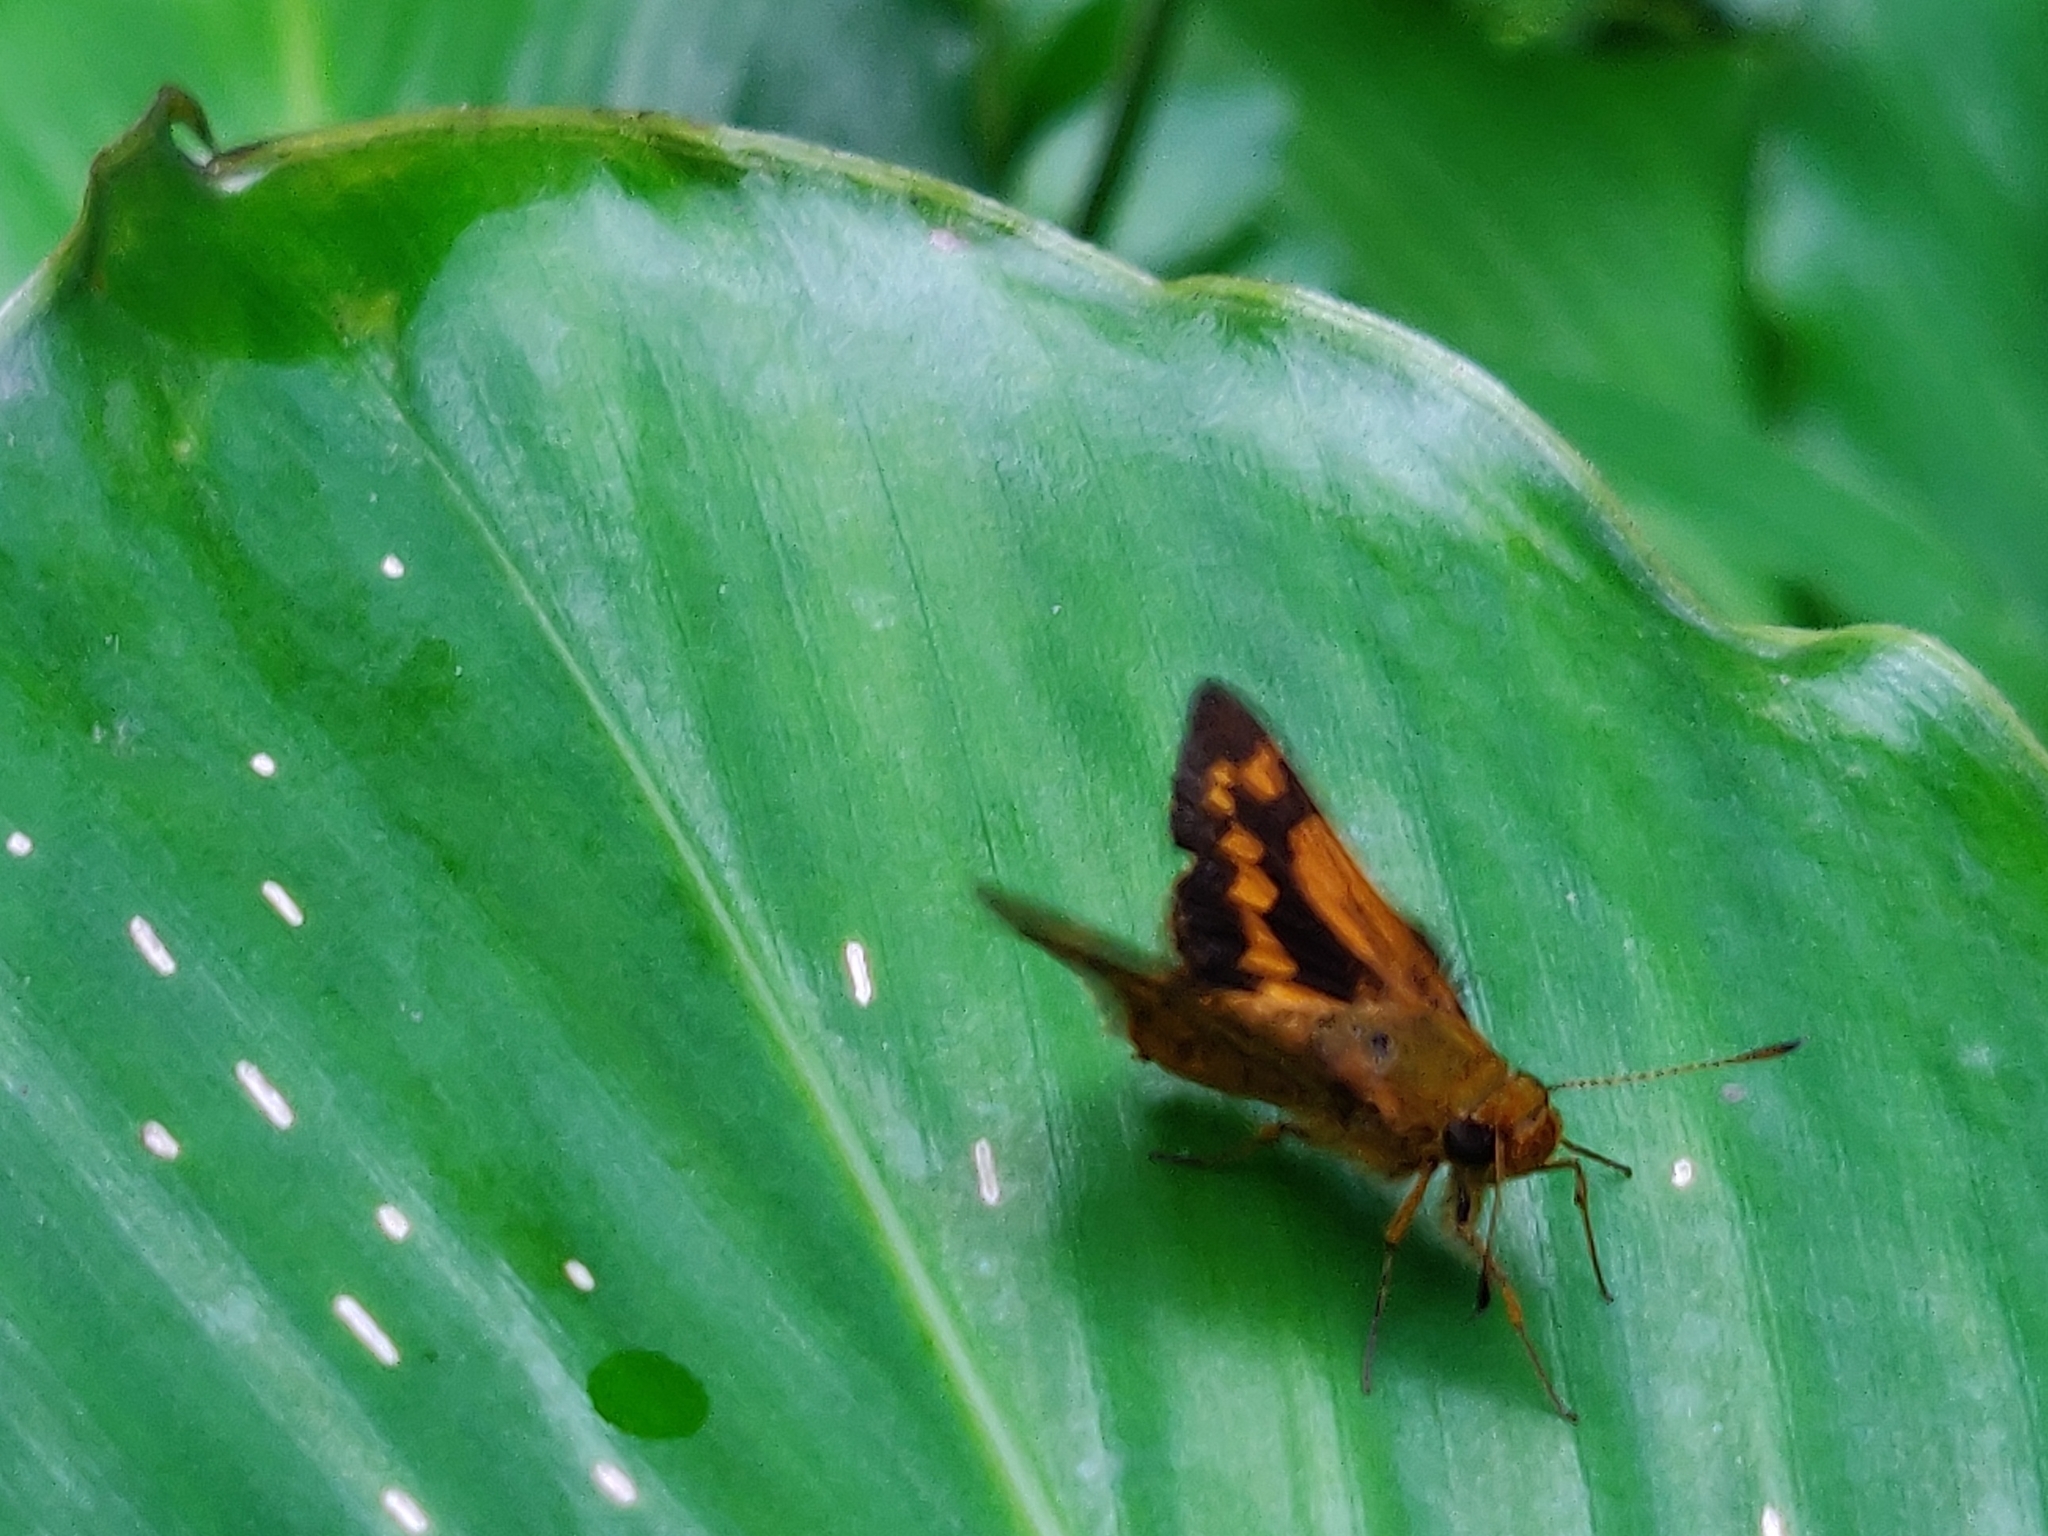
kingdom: Animalia
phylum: Arthropoda
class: Insecta
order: Lepidoptera
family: Hesperiidae
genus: Potanthus
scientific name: Potanthus omaha
